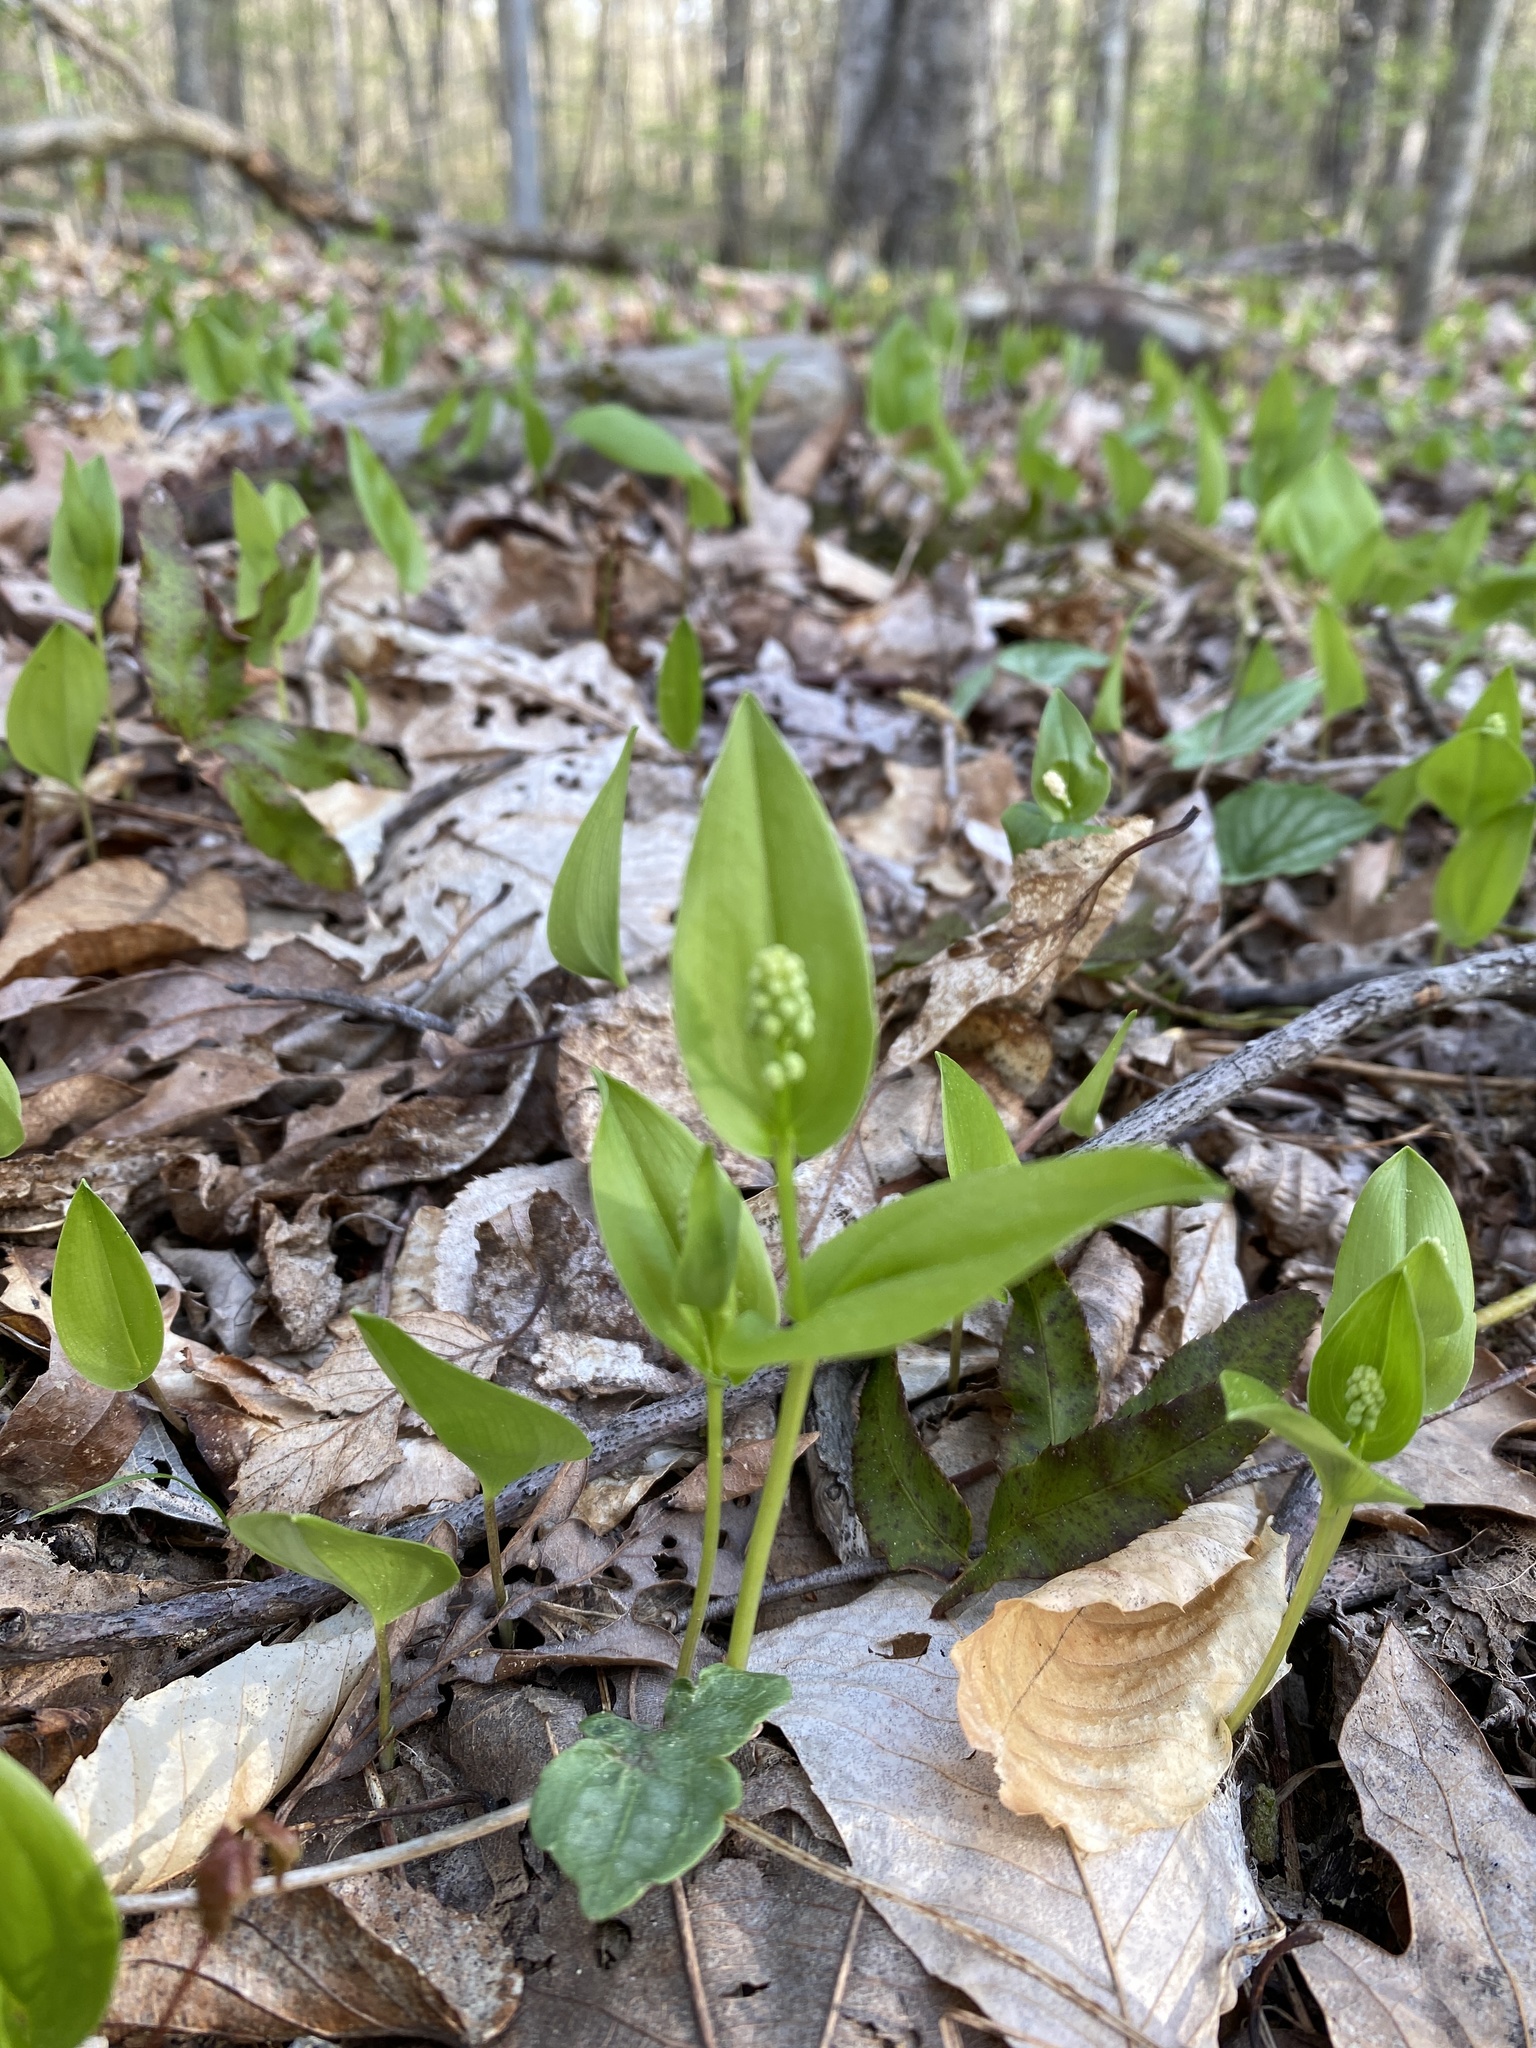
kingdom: Plantae
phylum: Tracheophyta
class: Liliopsida
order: Asparagales
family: Asparagaceae
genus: Maianthemum
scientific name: Maianthemum canadense
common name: False lily-of-the-valley
